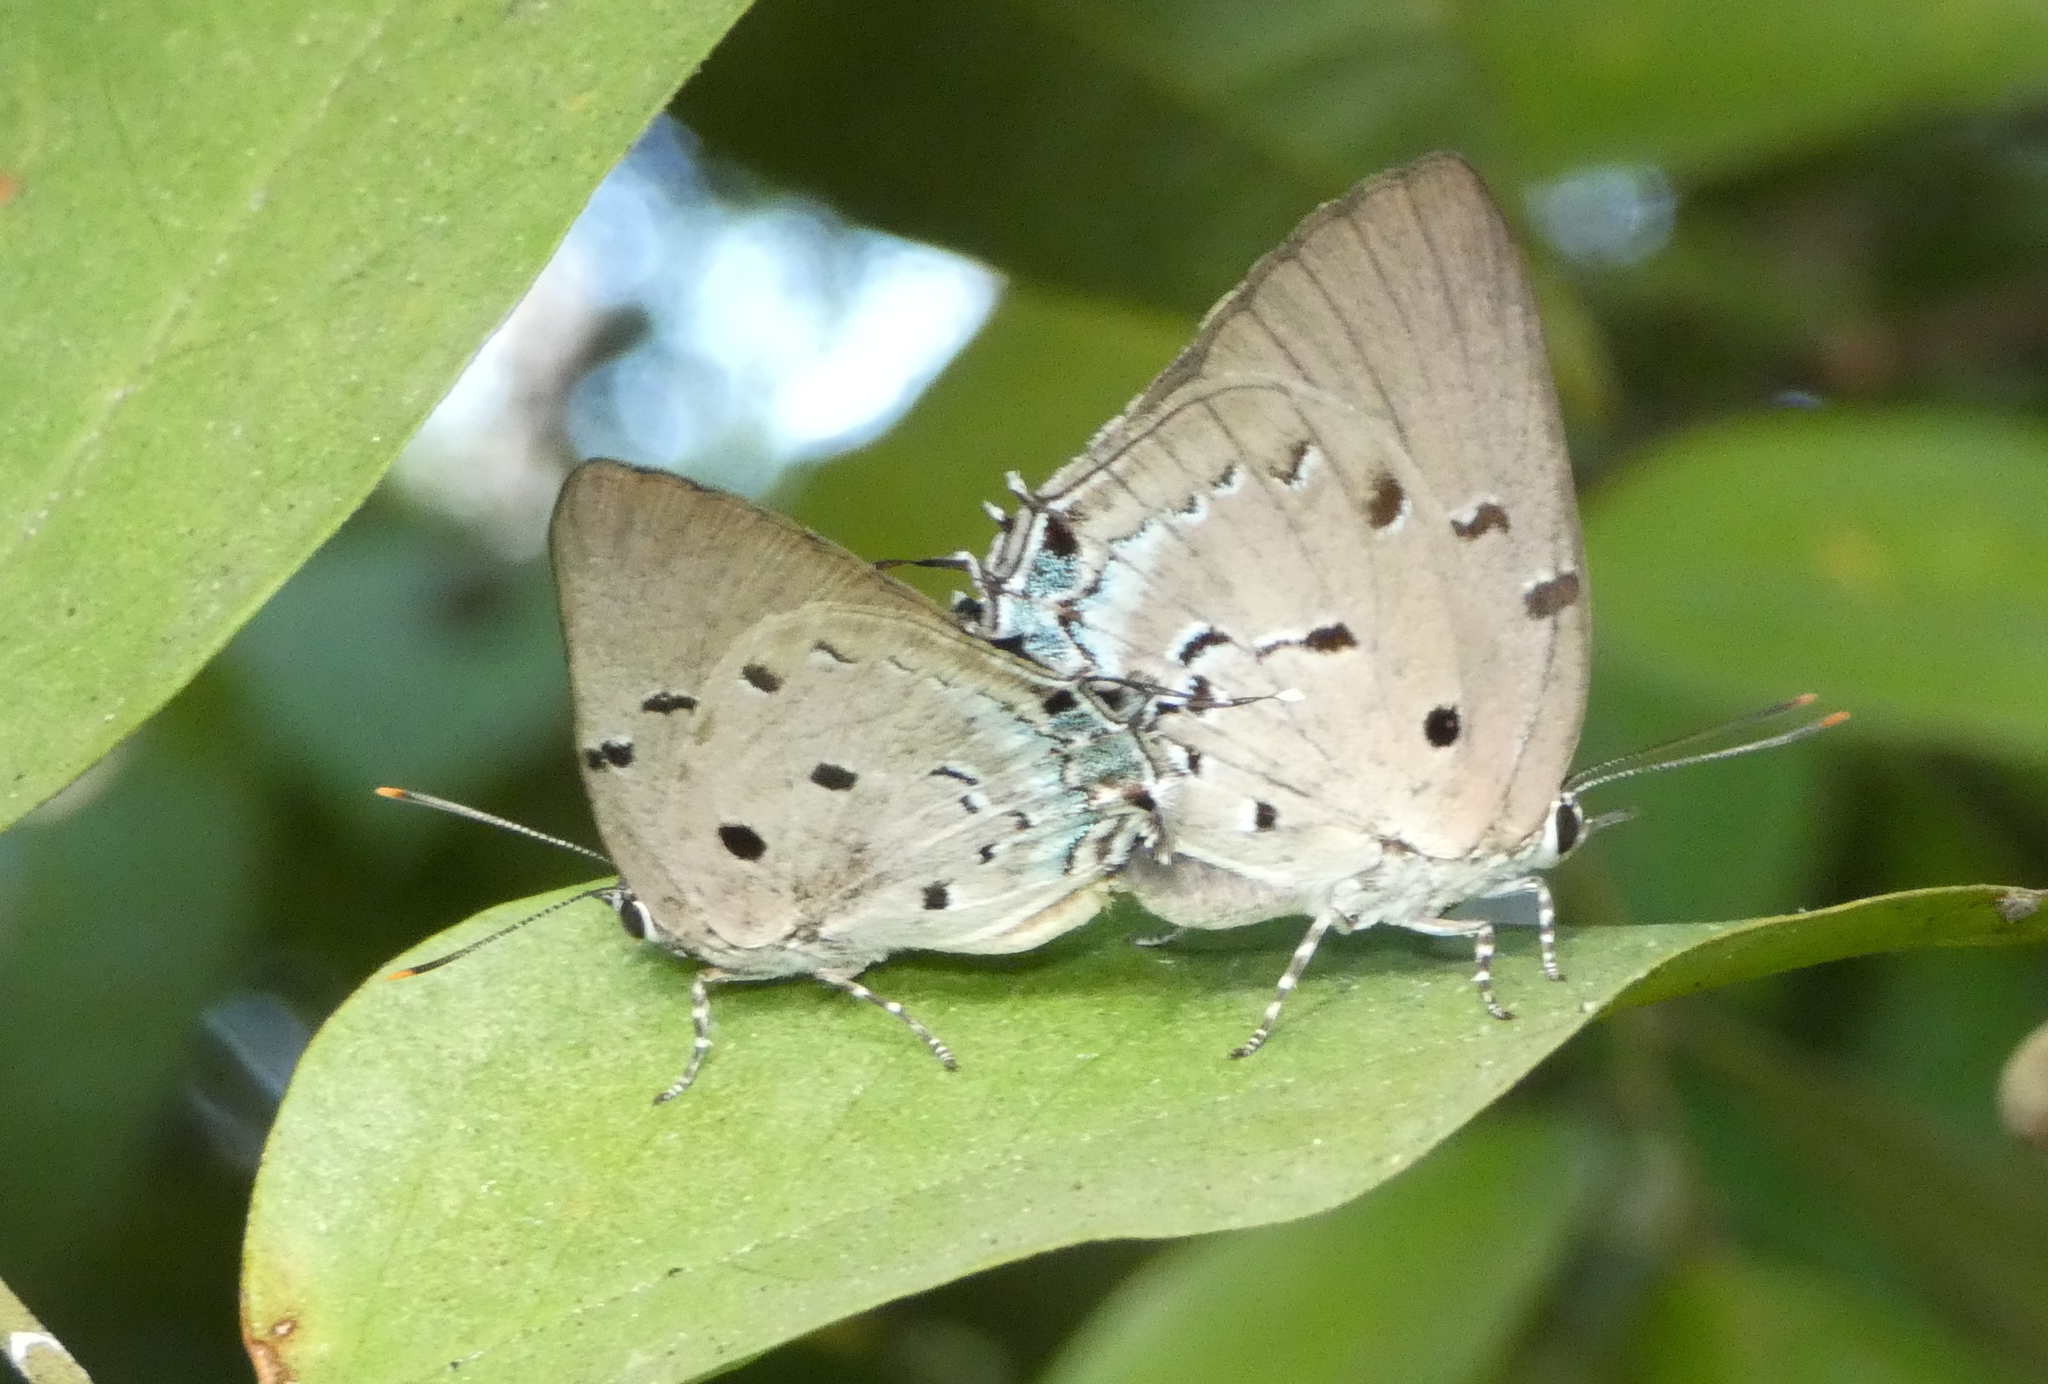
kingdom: Animalia
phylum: Arthropoda
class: Insecta
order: Lepidoptera
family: Lycaenidae
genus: Oenomaus
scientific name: Oenomaus ortygnus
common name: Aquamarine hairstreak
